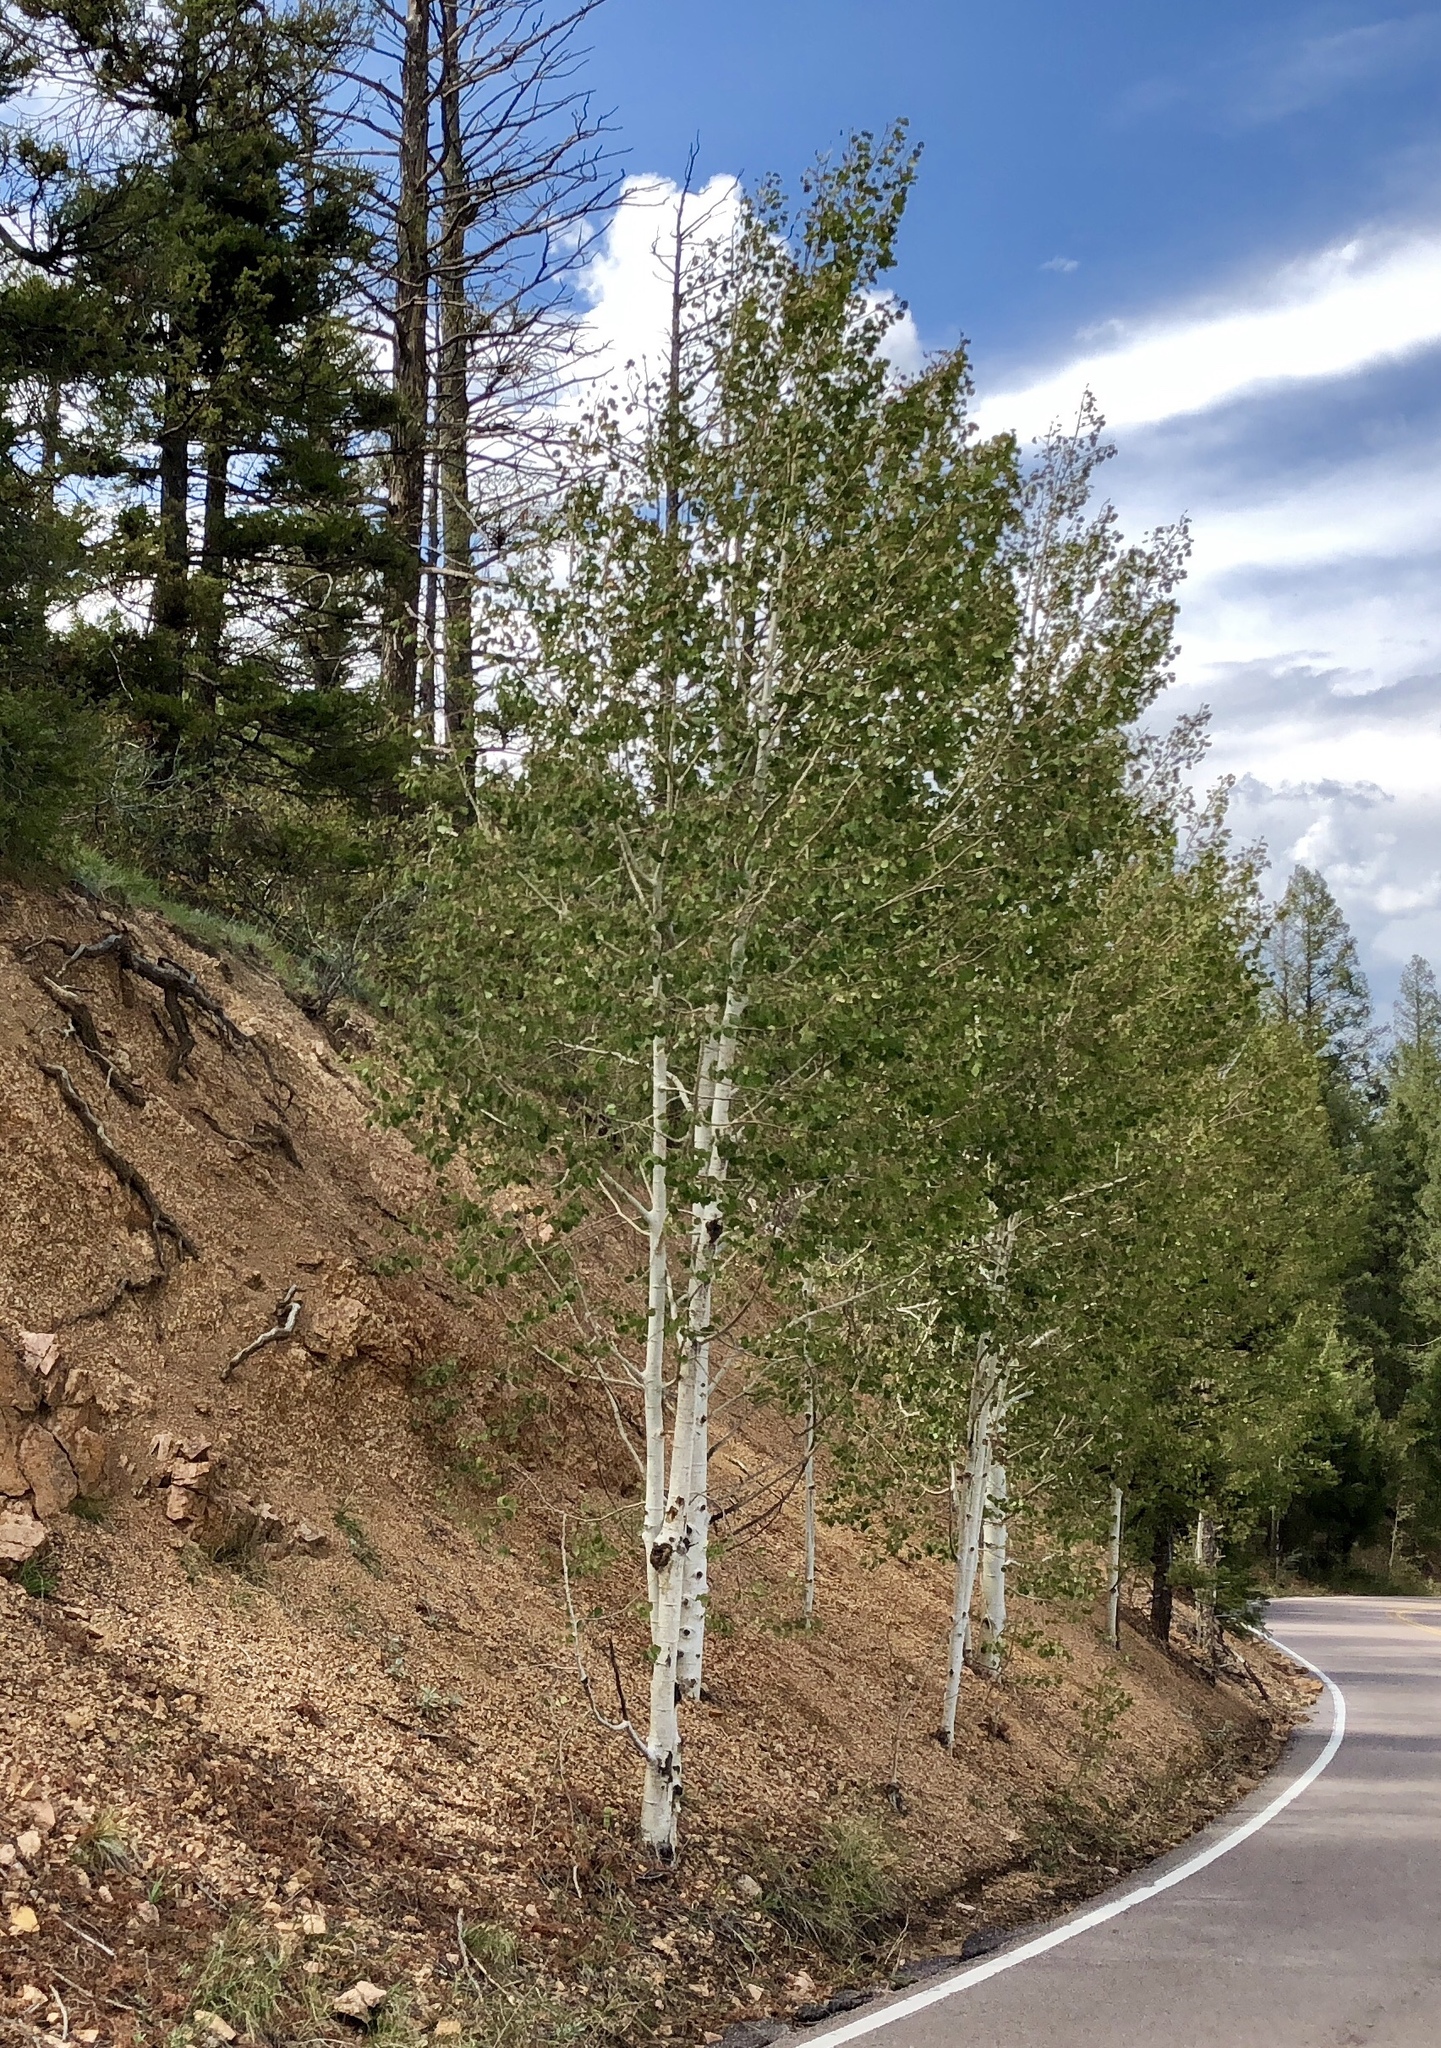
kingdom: Plantae
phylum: Tracheophyta
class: Magnoliopsida
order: Malpighiales
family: Salicaceae
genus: Populus
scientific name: Populus tremuloides
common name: Quaking aspen
